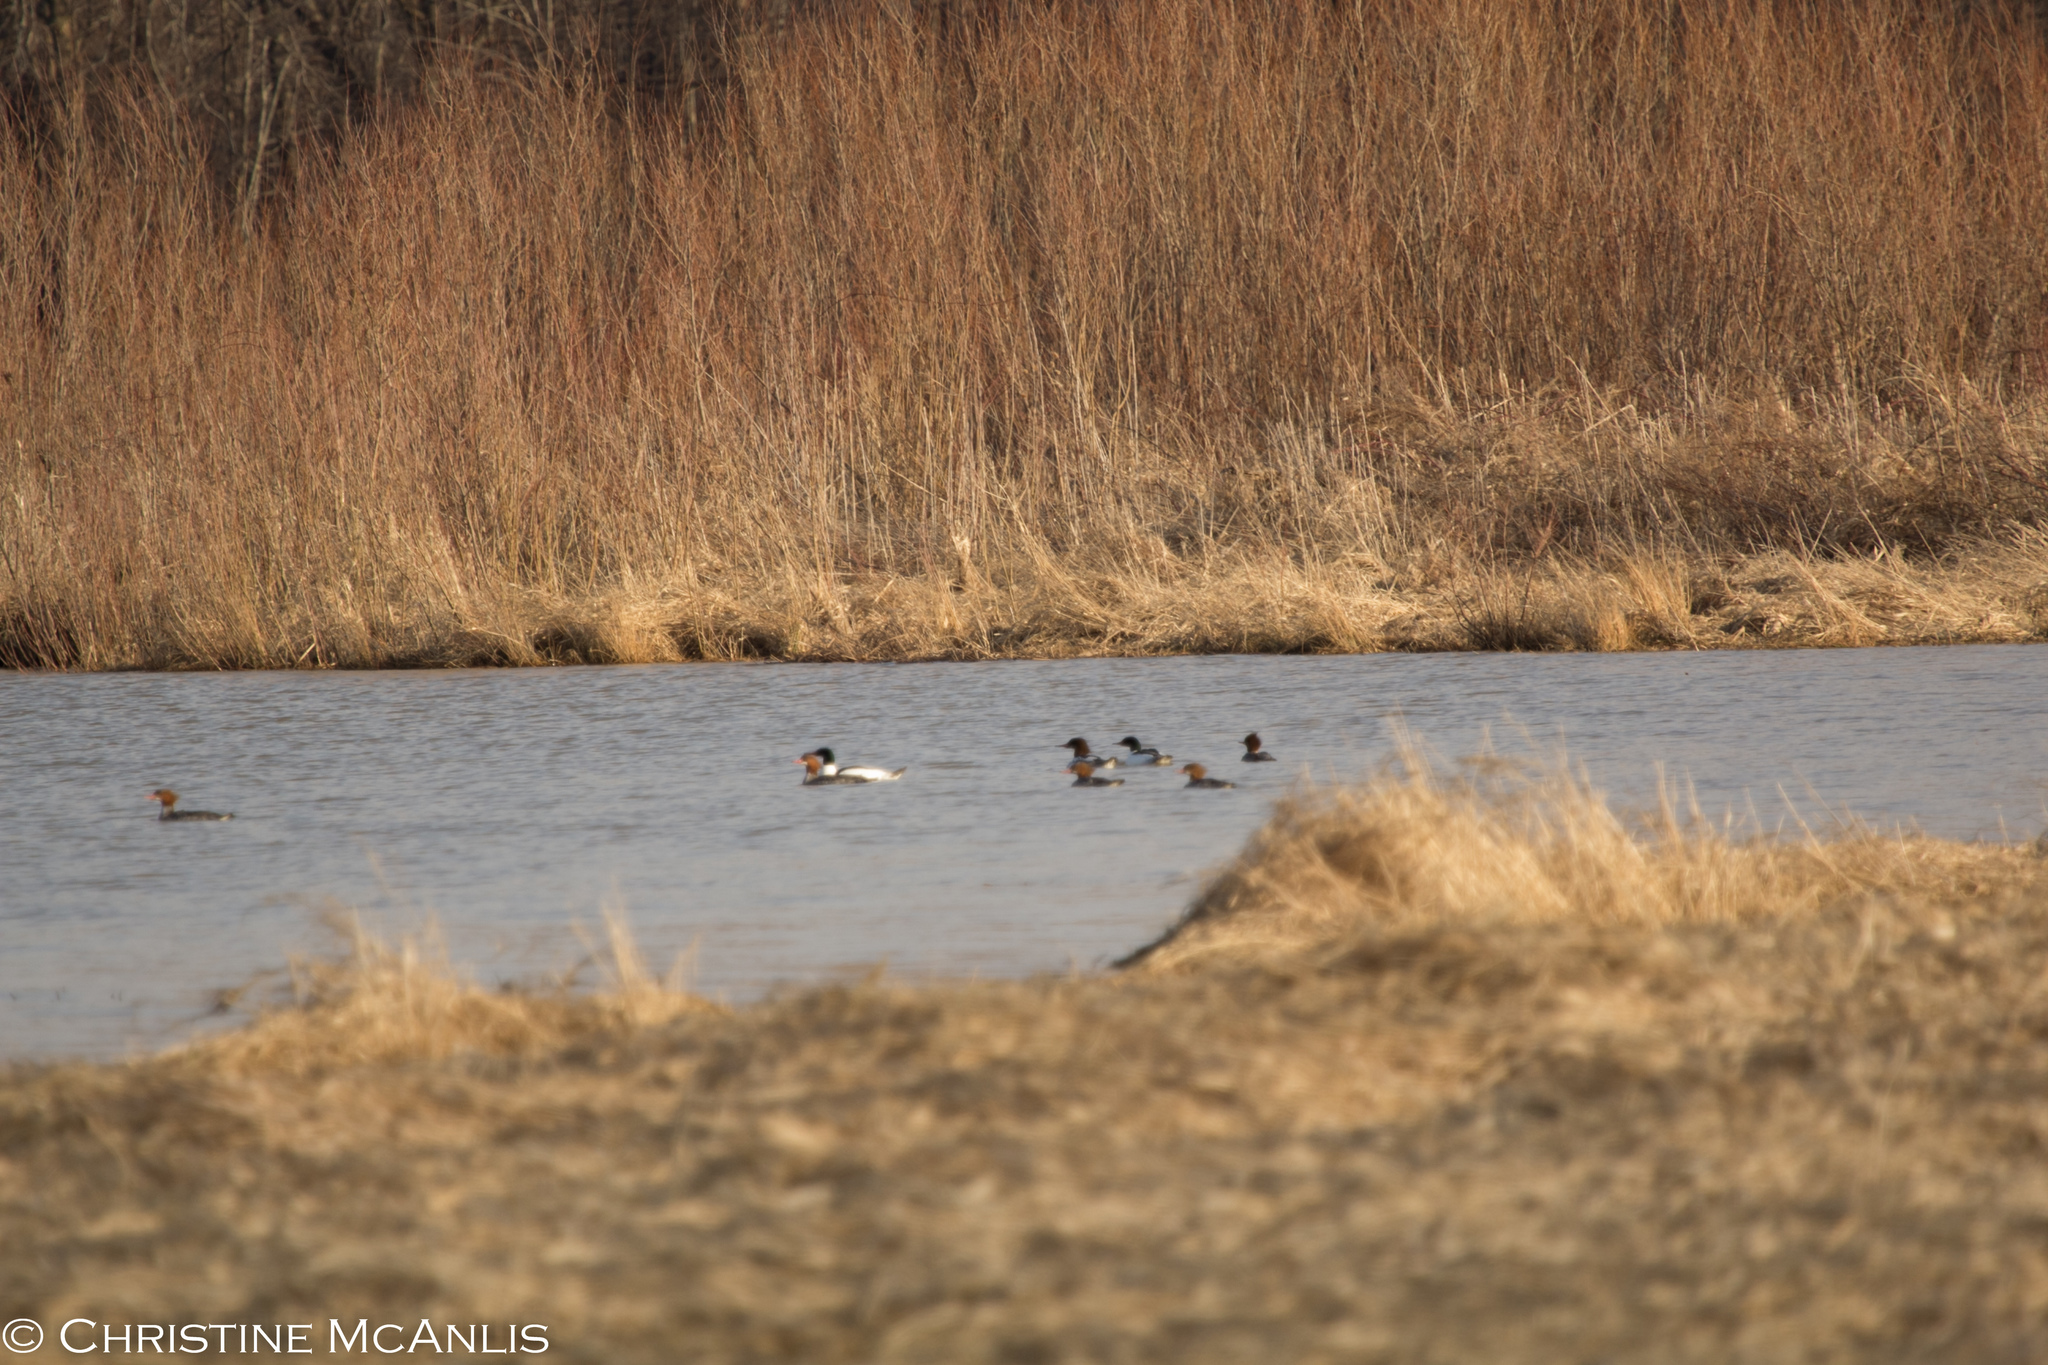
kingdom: Animalia
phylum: Chordata
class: Aves
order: Anseriformes
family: Anatidae
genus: Mergus
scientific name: Mergus merganser
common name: Common merganser
